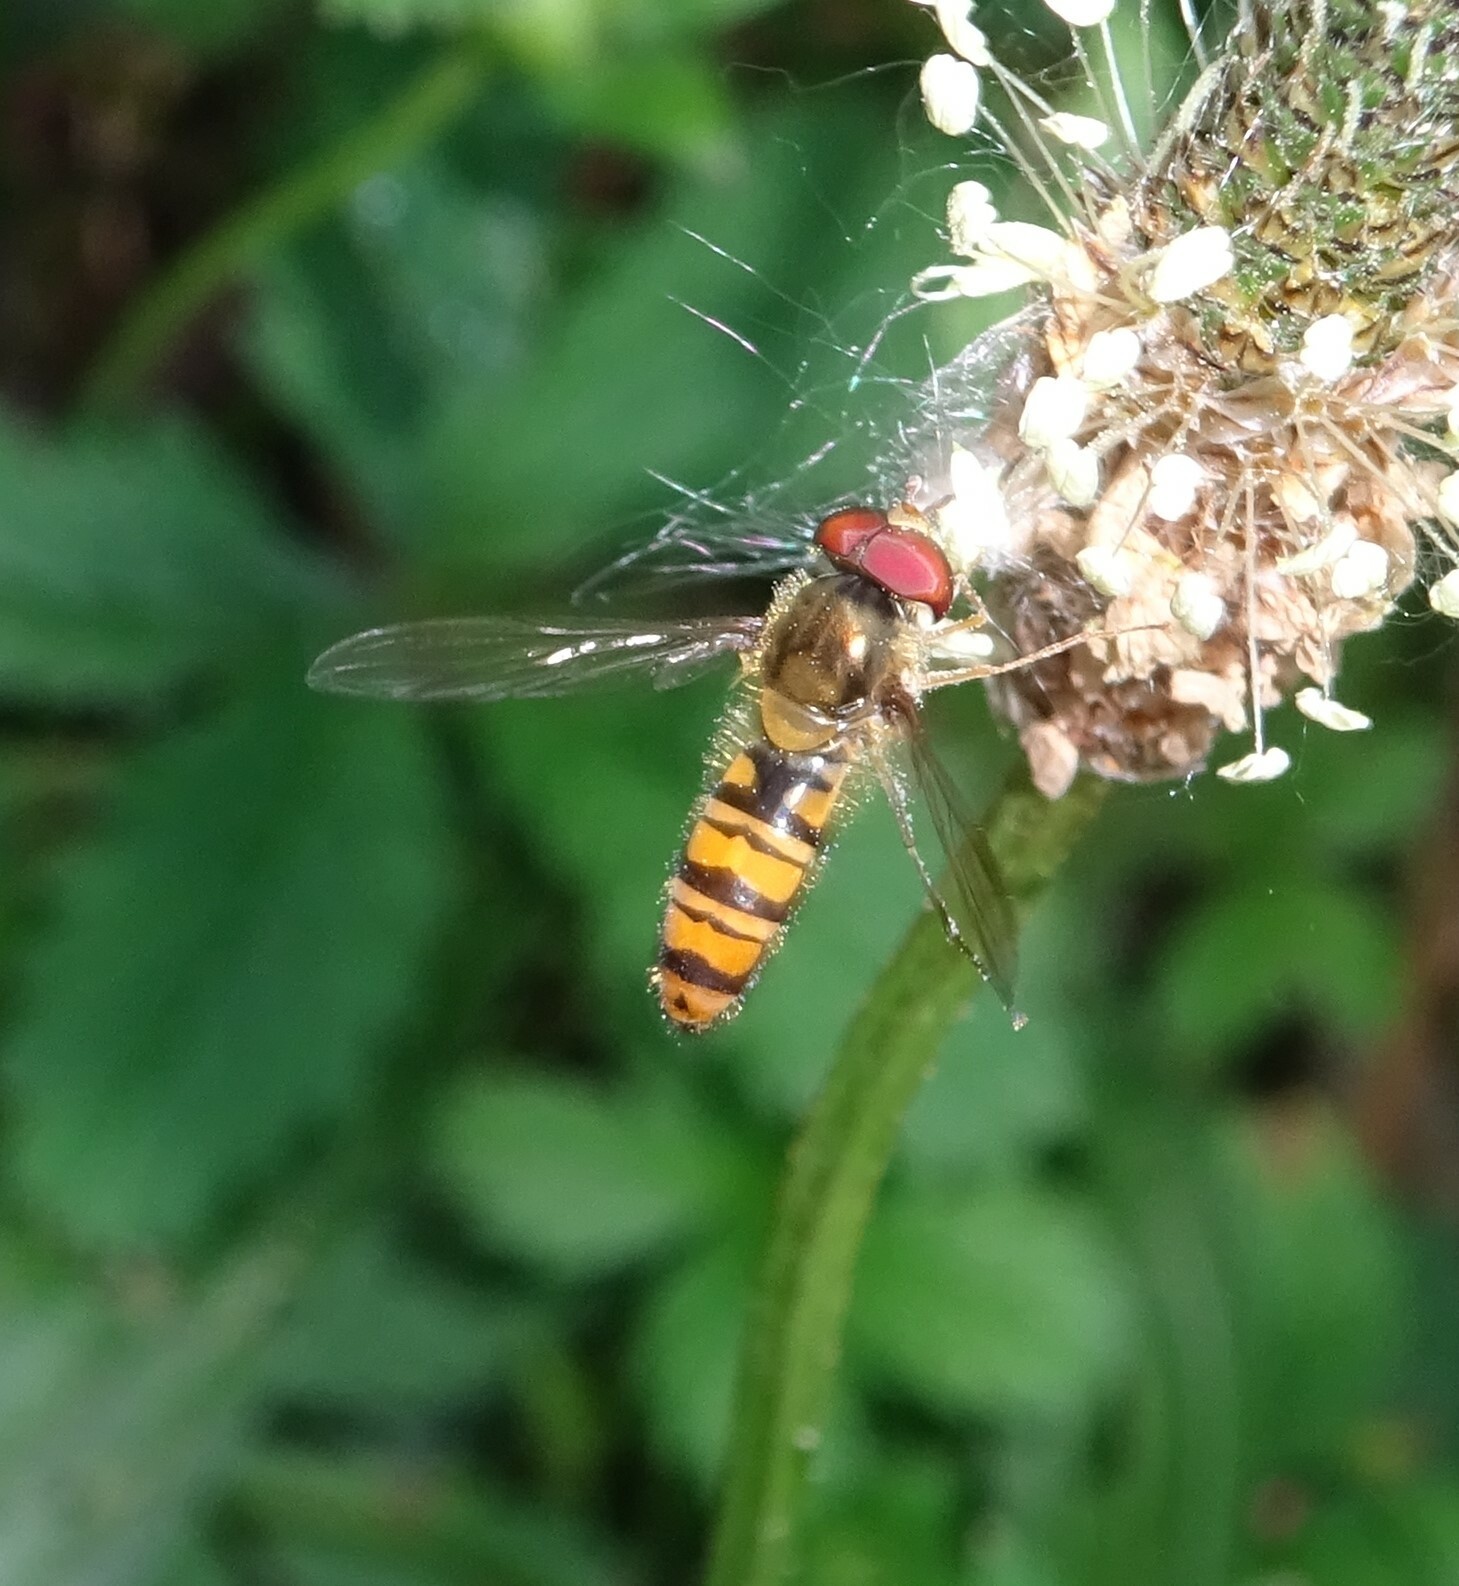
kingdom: Animalia
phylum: Arthropoda
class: Insecta
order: Diptera
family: Syrphidae
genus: Episyrphus
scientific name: Episyrphus balteatus
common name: Marmalade hoverfly
